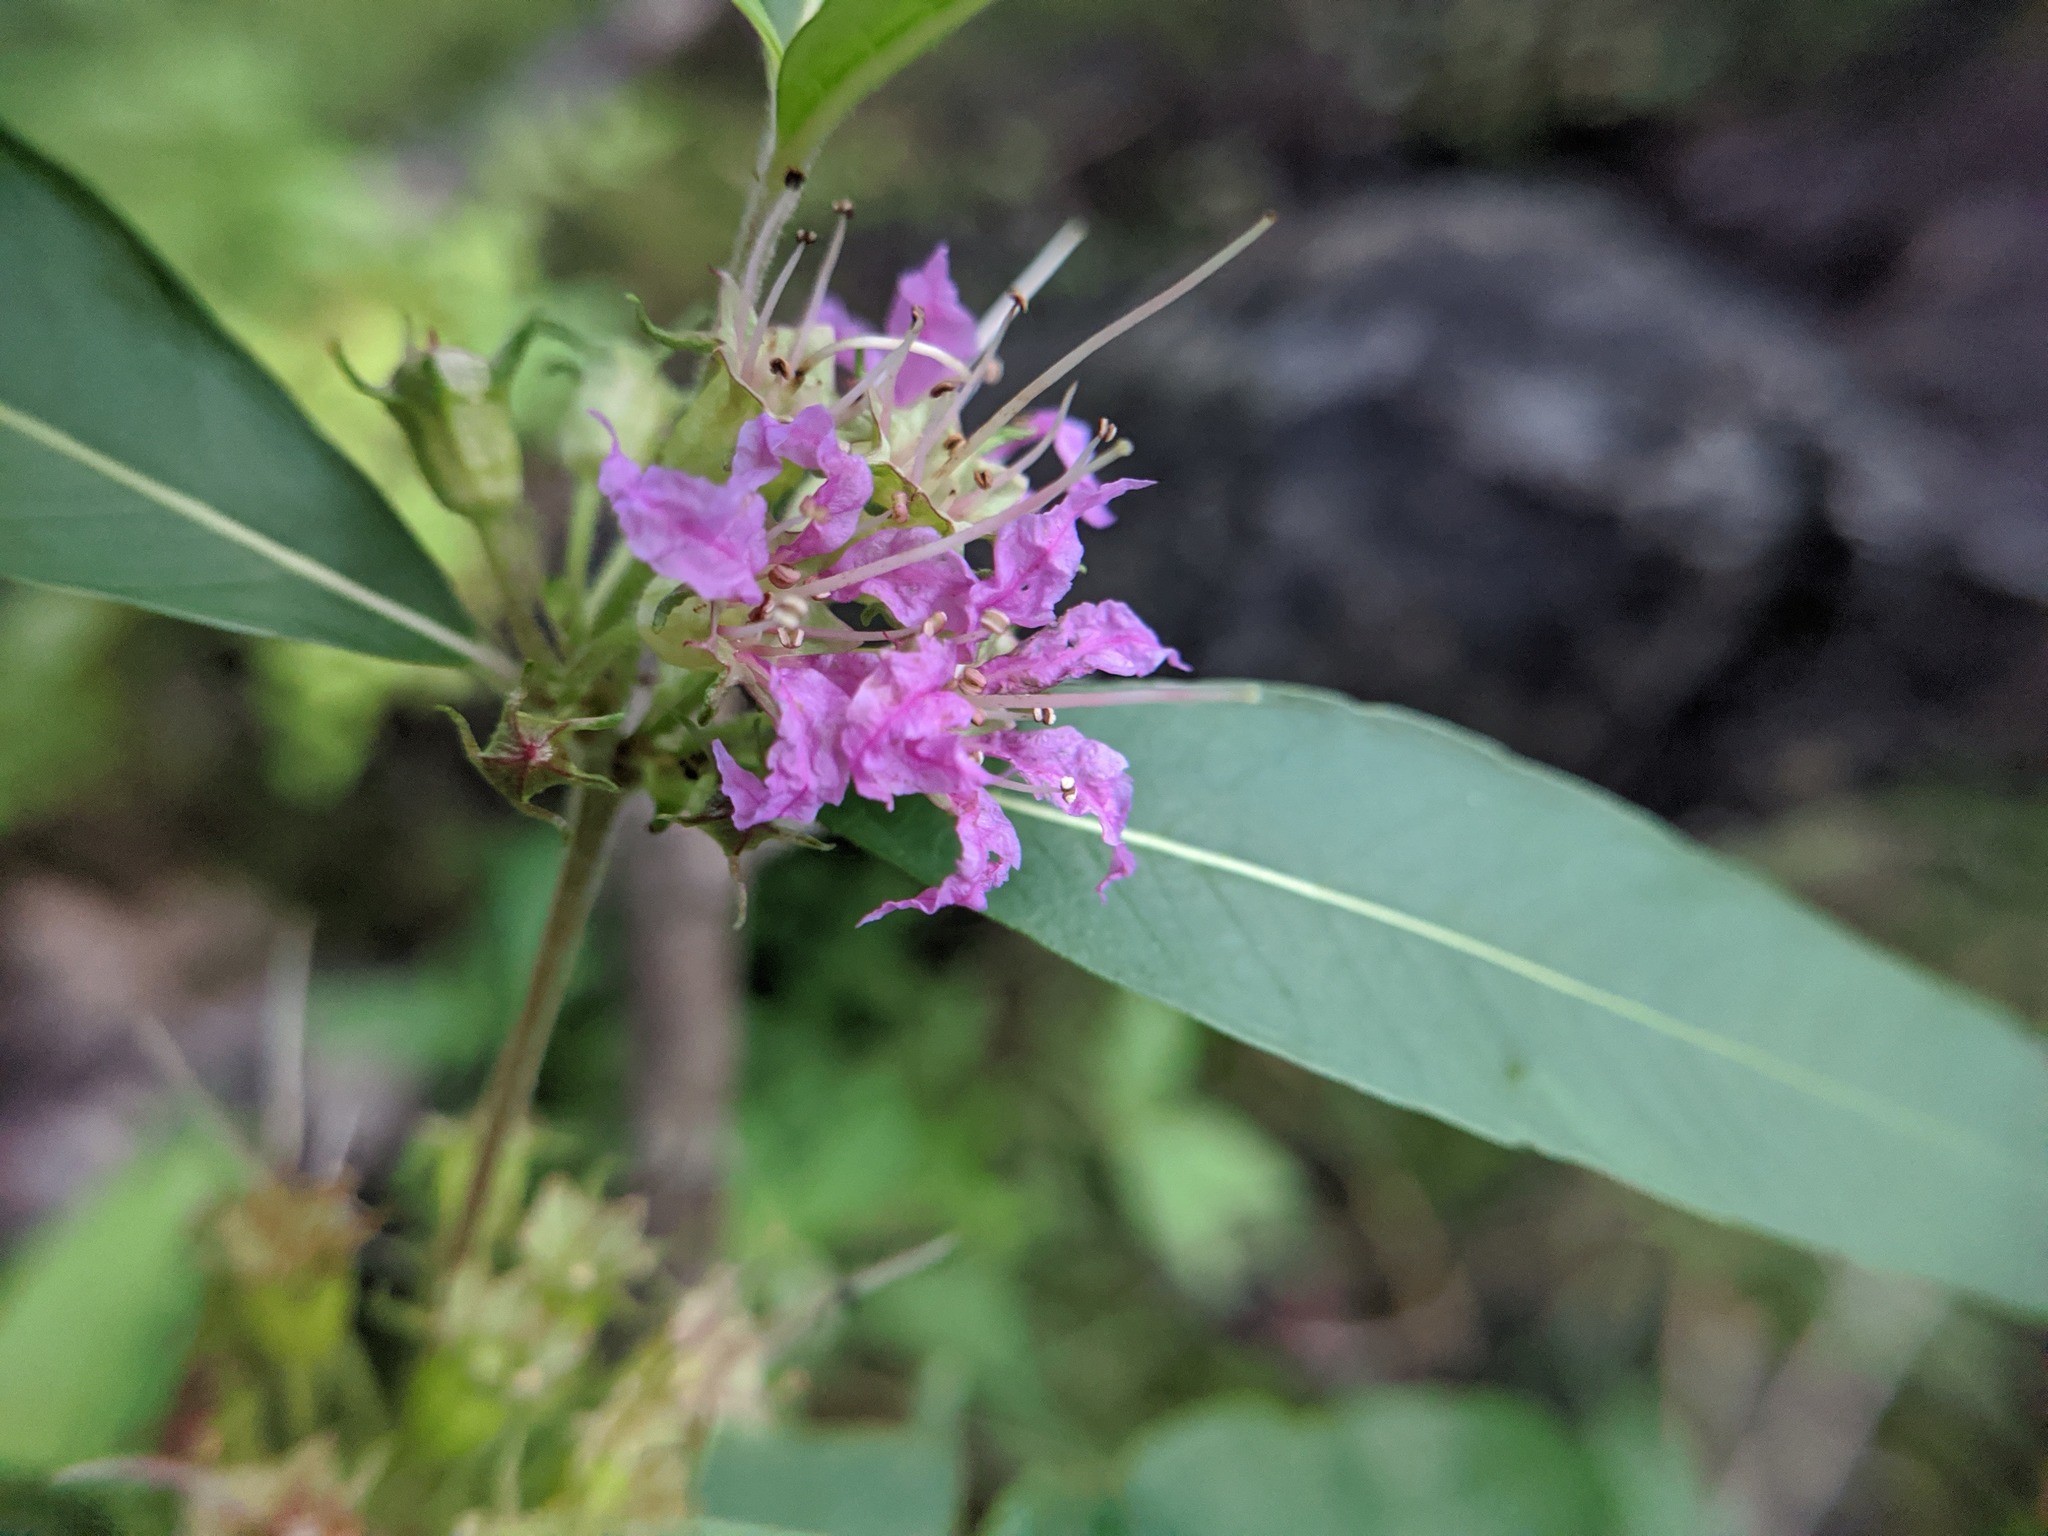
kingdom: Plantae
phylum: Tracheophyta
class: Magnoliopsida
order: Myrtales
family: Lythraceae
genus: Decodon
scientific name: Decodon verticillatus
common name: Hairy swamp loosestrife
